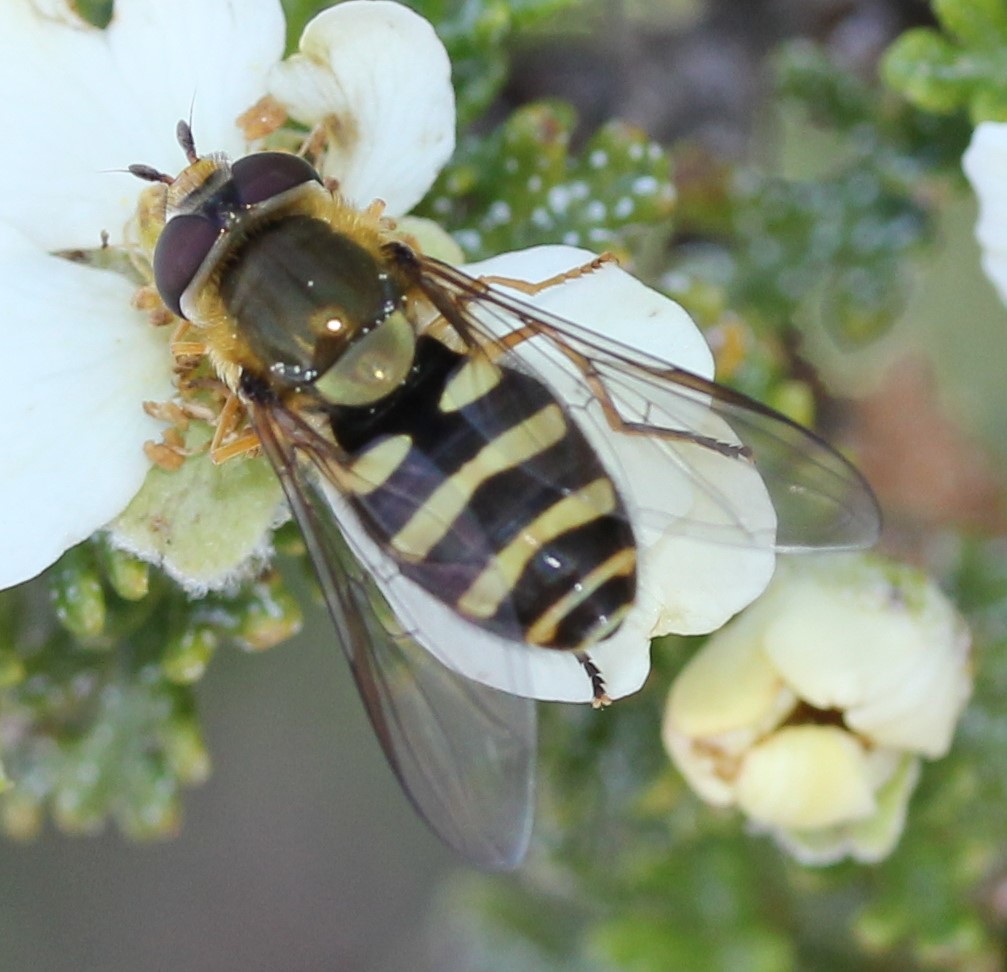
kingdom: Animalia
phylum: Arthropoda
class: Insecta
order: Diptera
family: Syrphidae
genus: Syrphus
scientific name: Syrphus opinator
